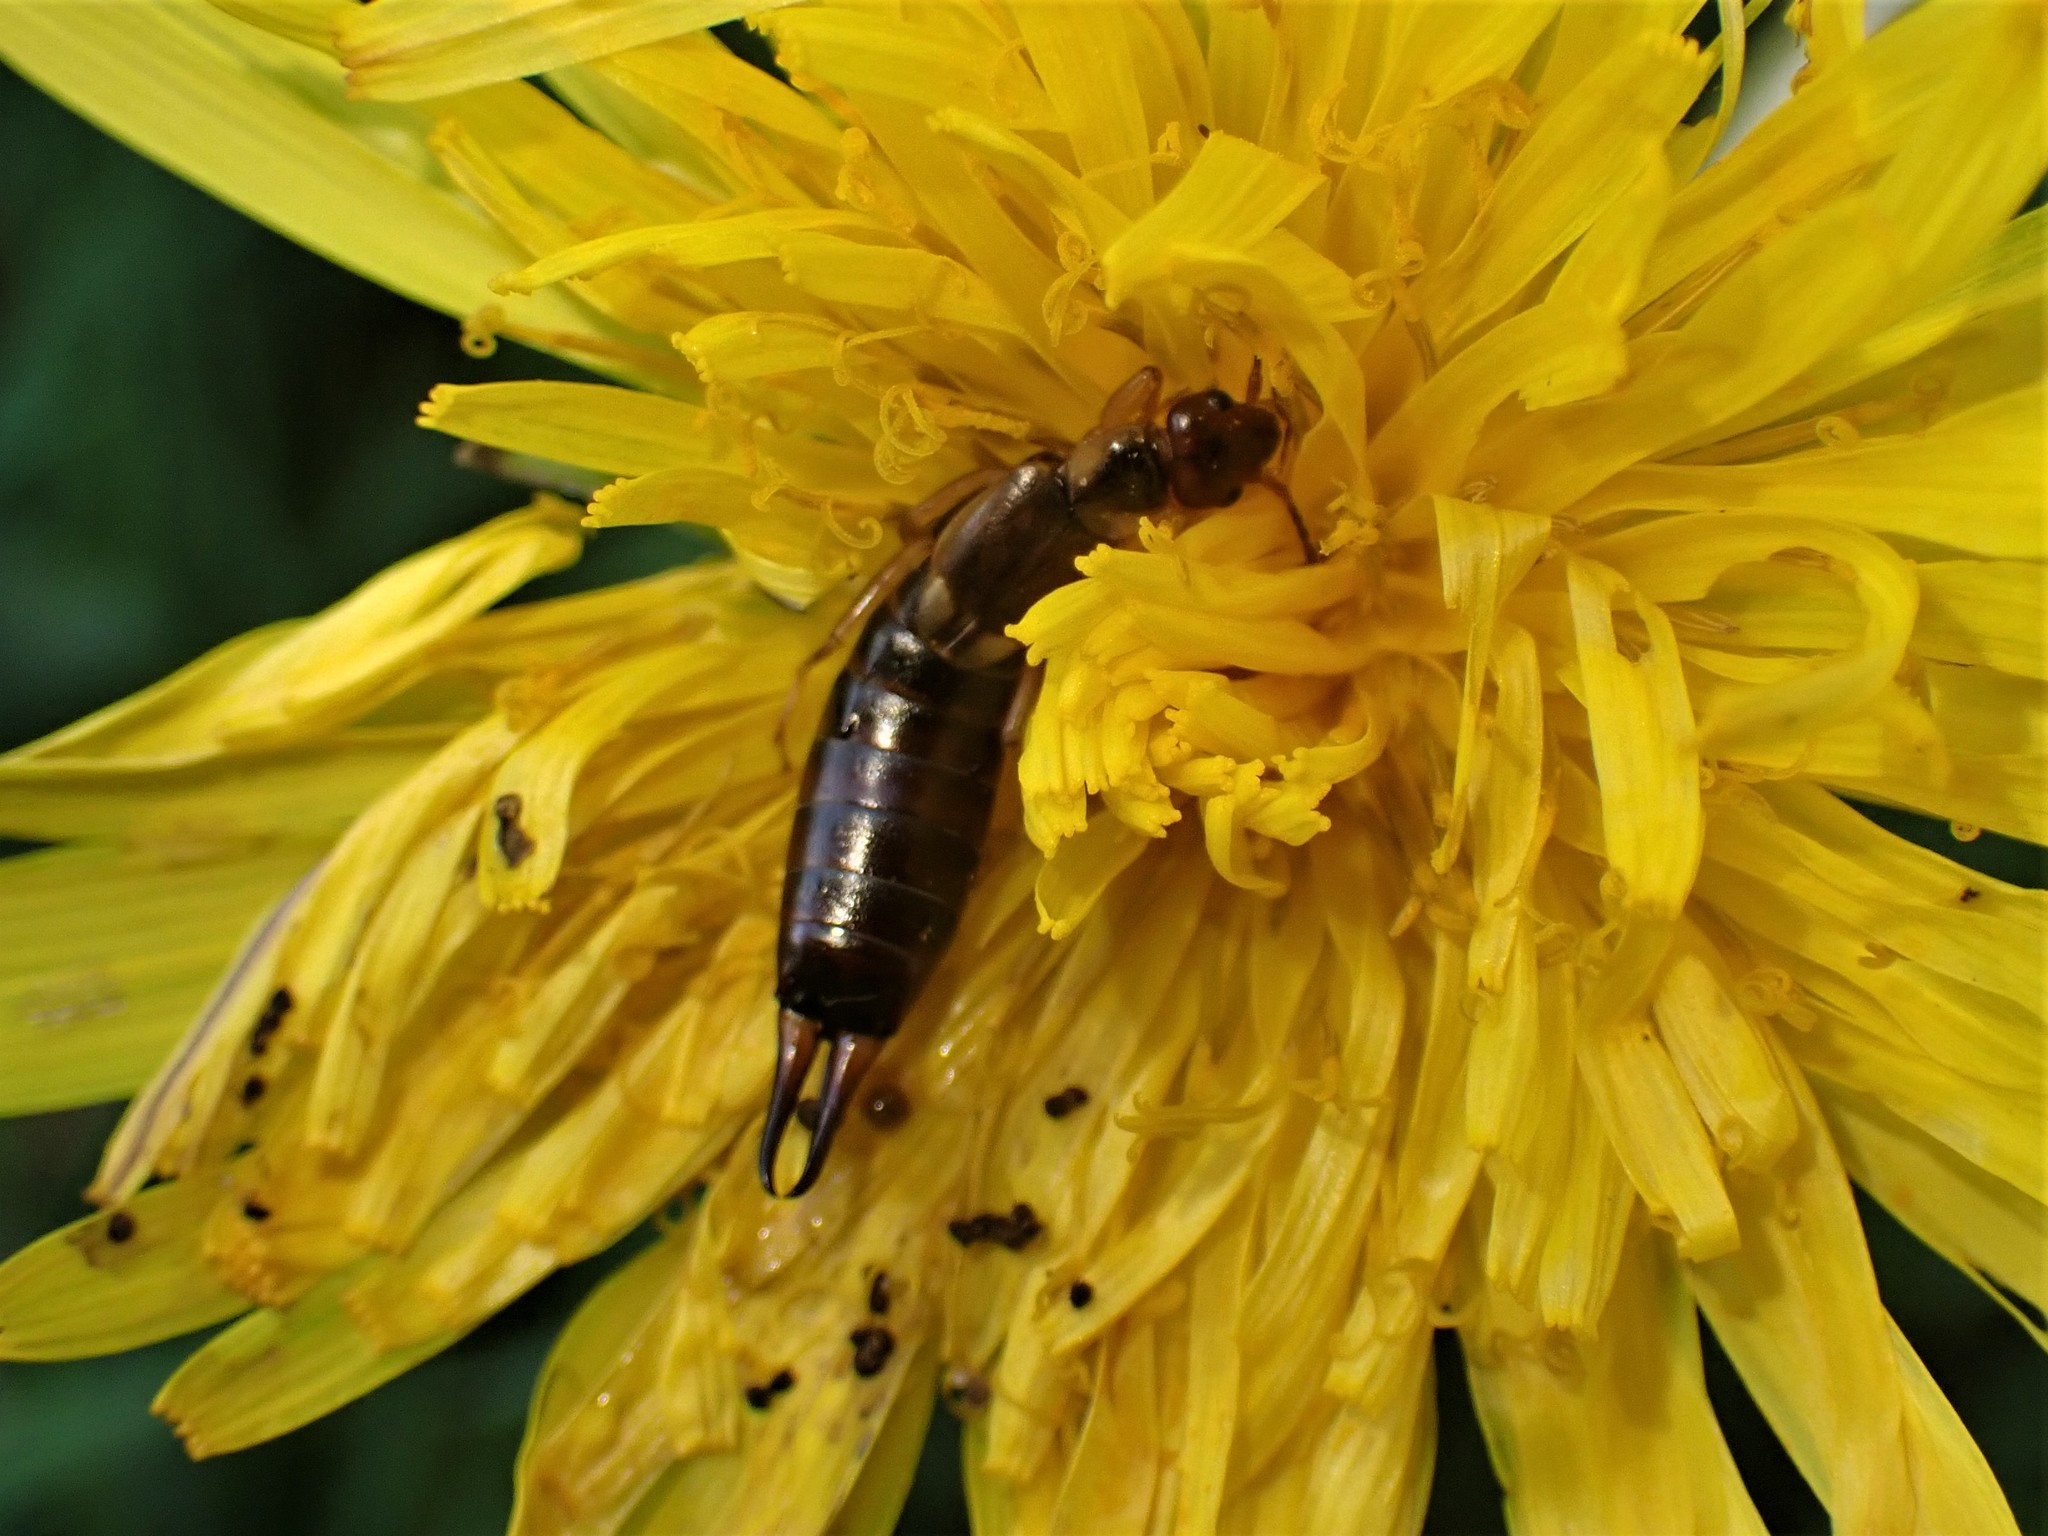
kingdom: Animalia
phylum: Arthropoda
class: Insecta
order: Dermaptera
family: Forficulidae
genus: Forficula
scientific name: Forficula
